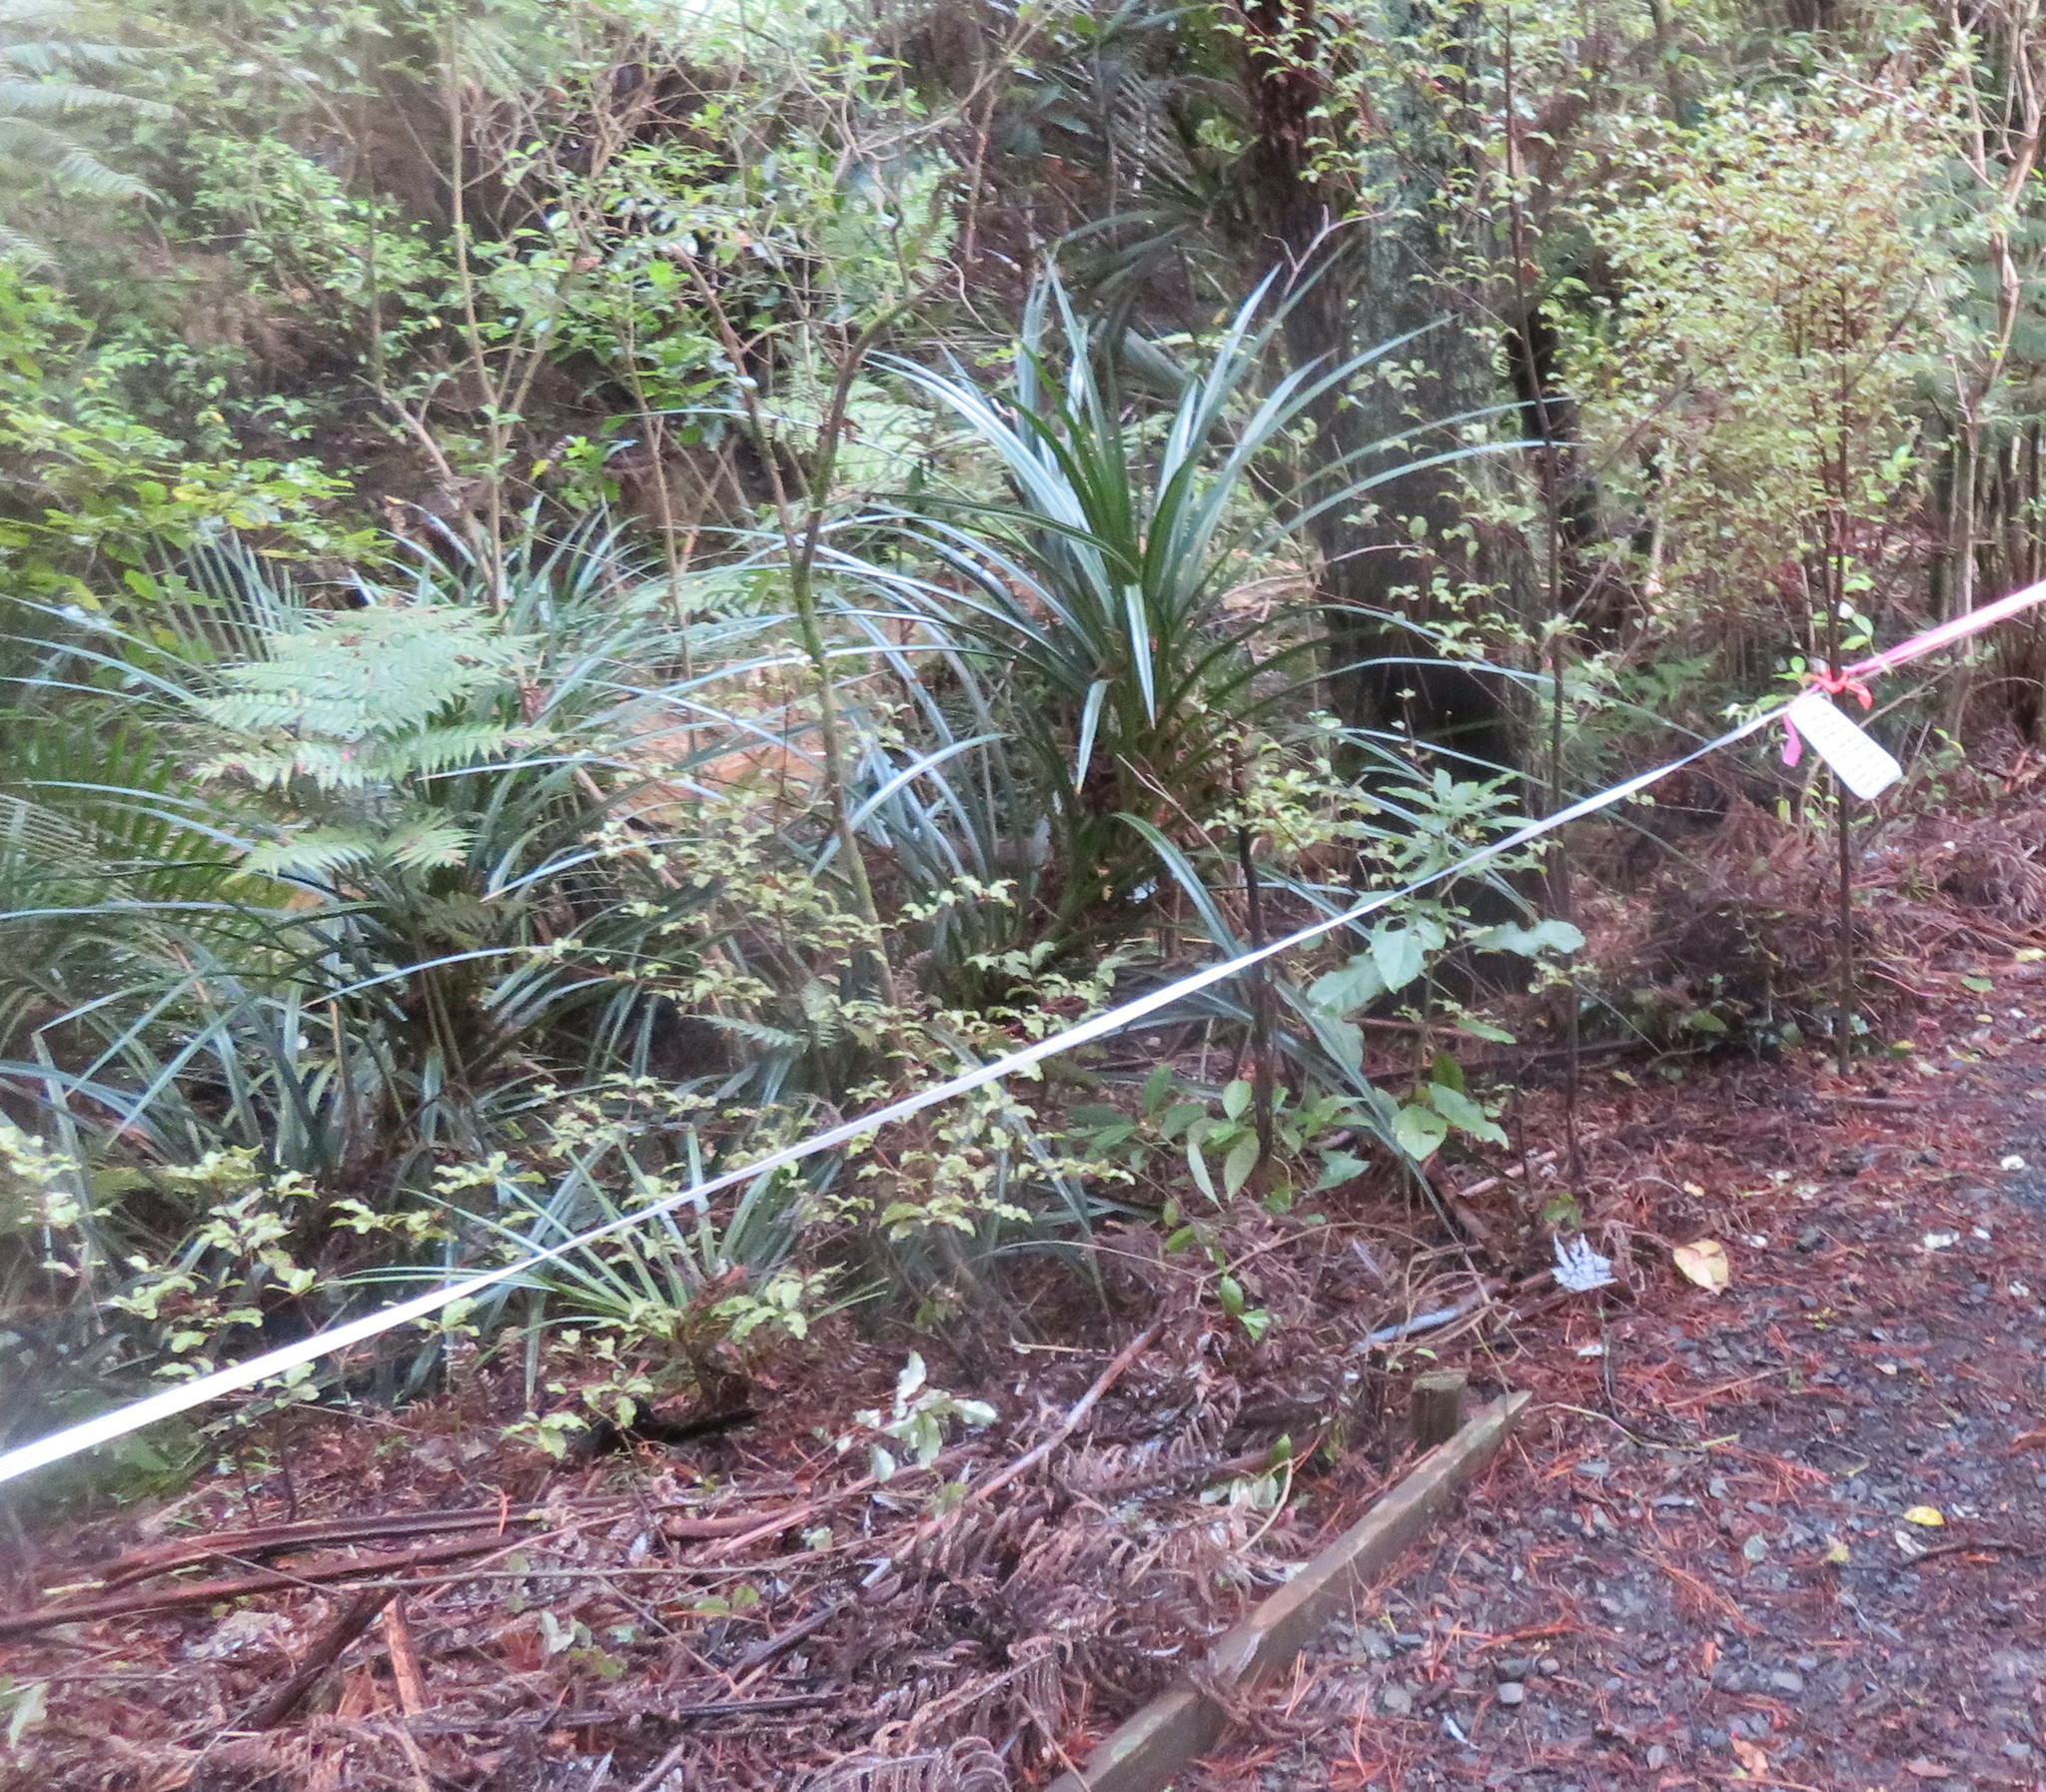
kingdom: Plantae
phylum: Tracheophyta
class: Magnoliopsida
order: Ericales
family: Primulaceae
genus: Myrsine
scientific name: Myrsine australis
